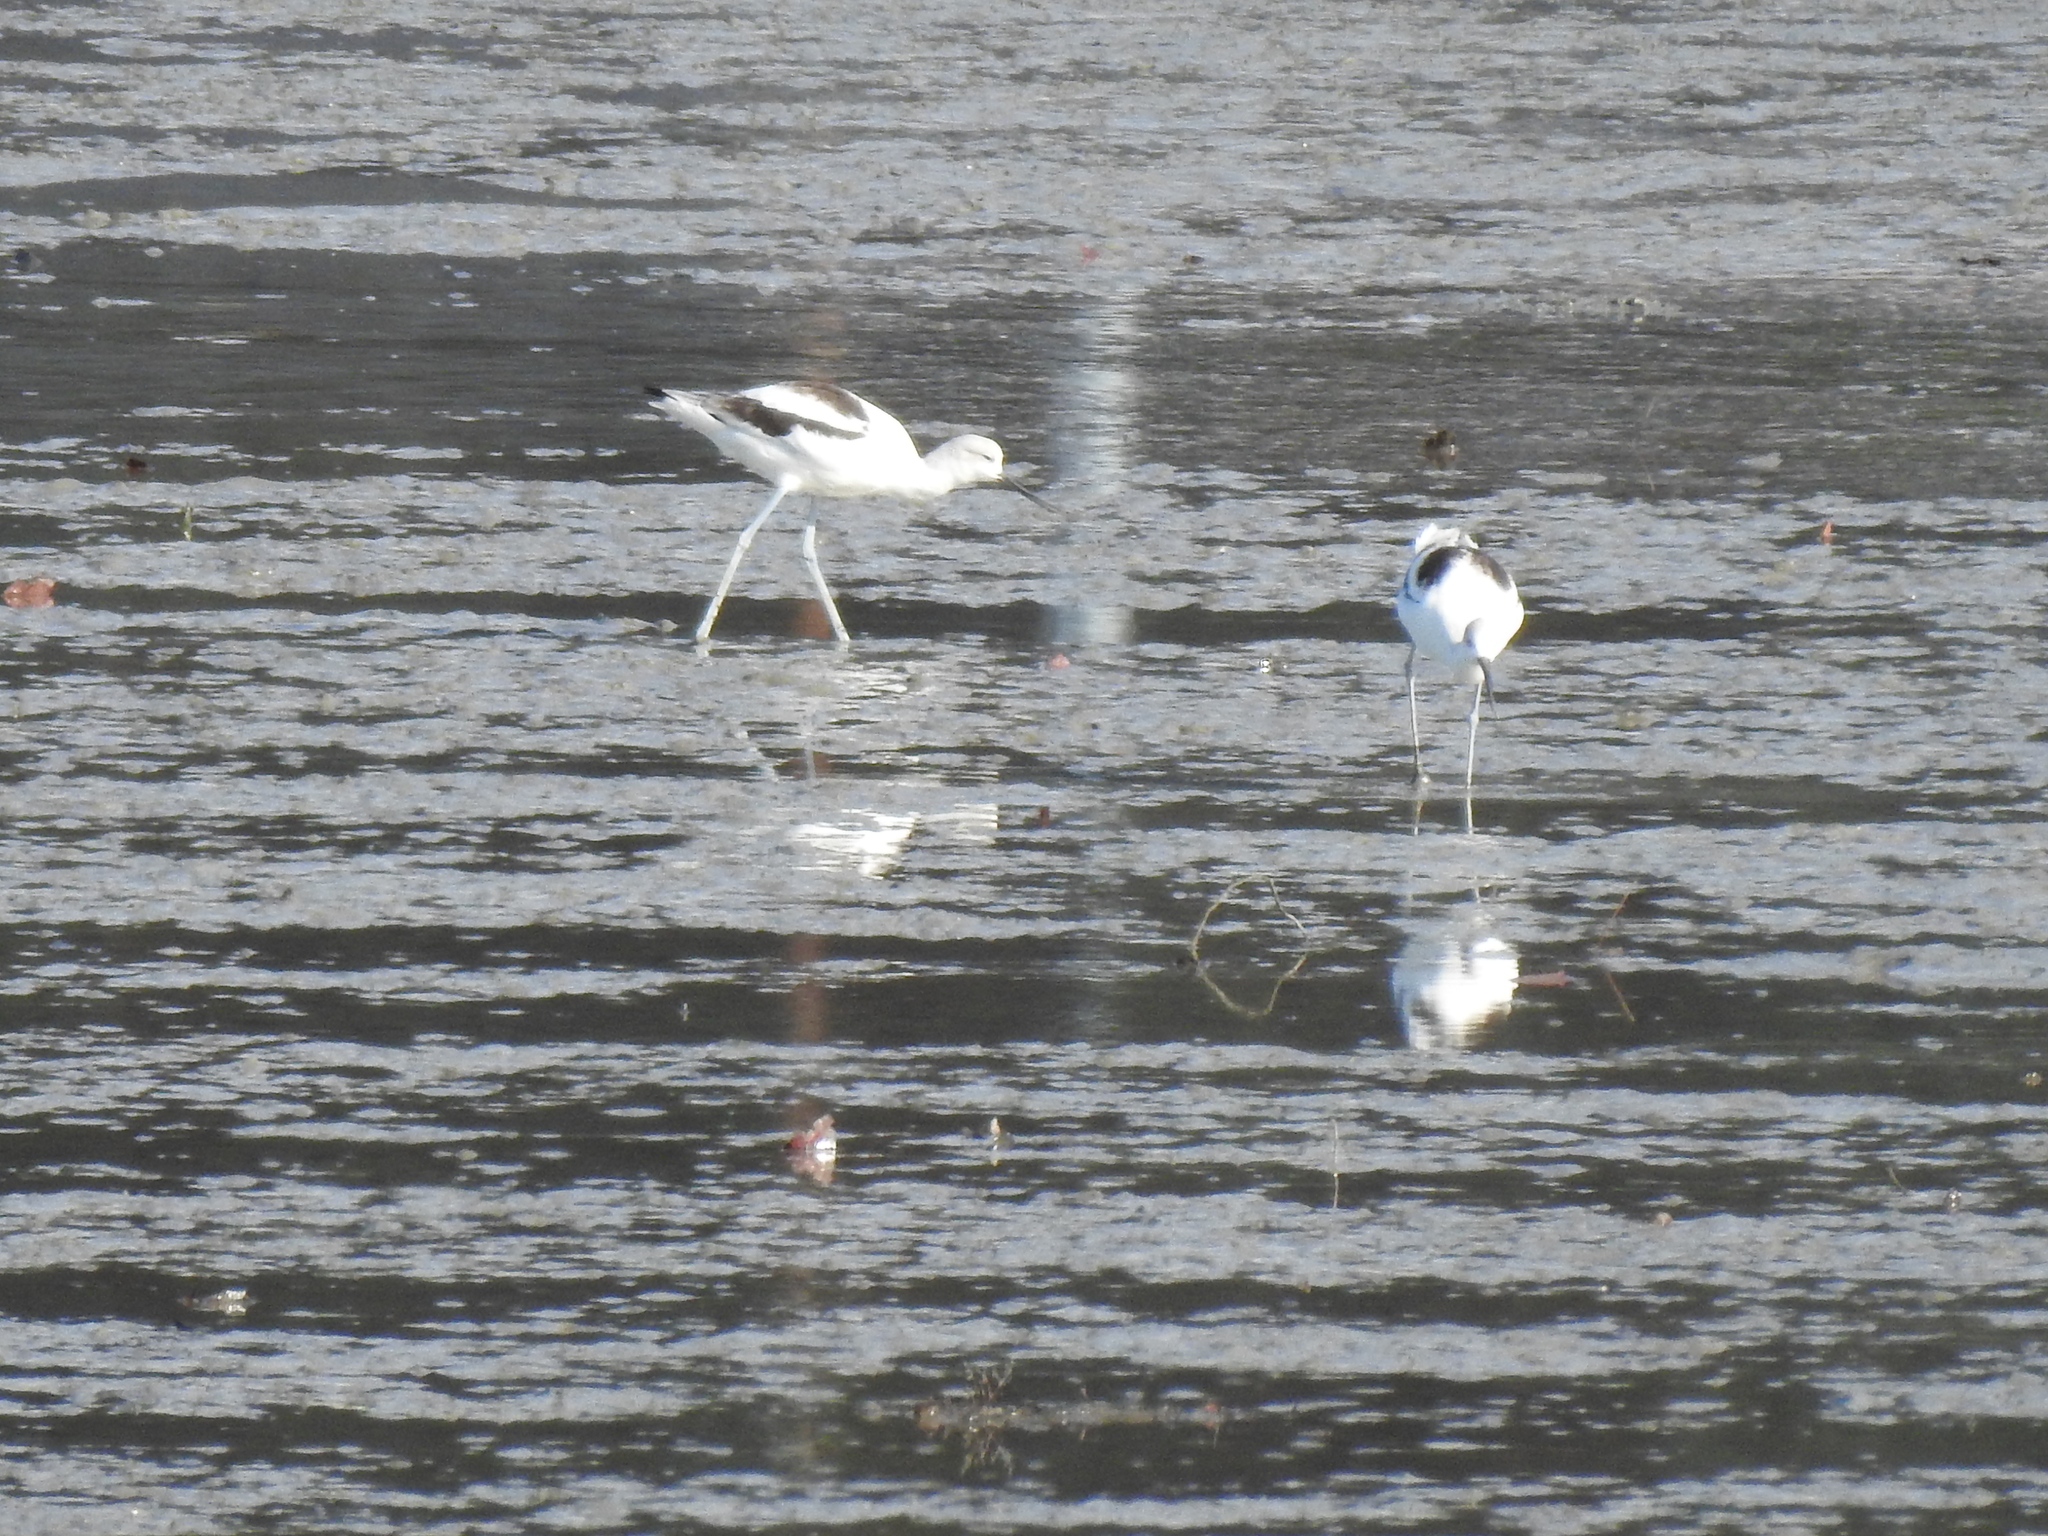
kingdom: Animalia
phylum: Chordata
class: Aves
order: Charadriiformes
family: Recurvirostridae
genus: Recurvirostra
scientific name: Recurvirostra americana
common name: American avocet
